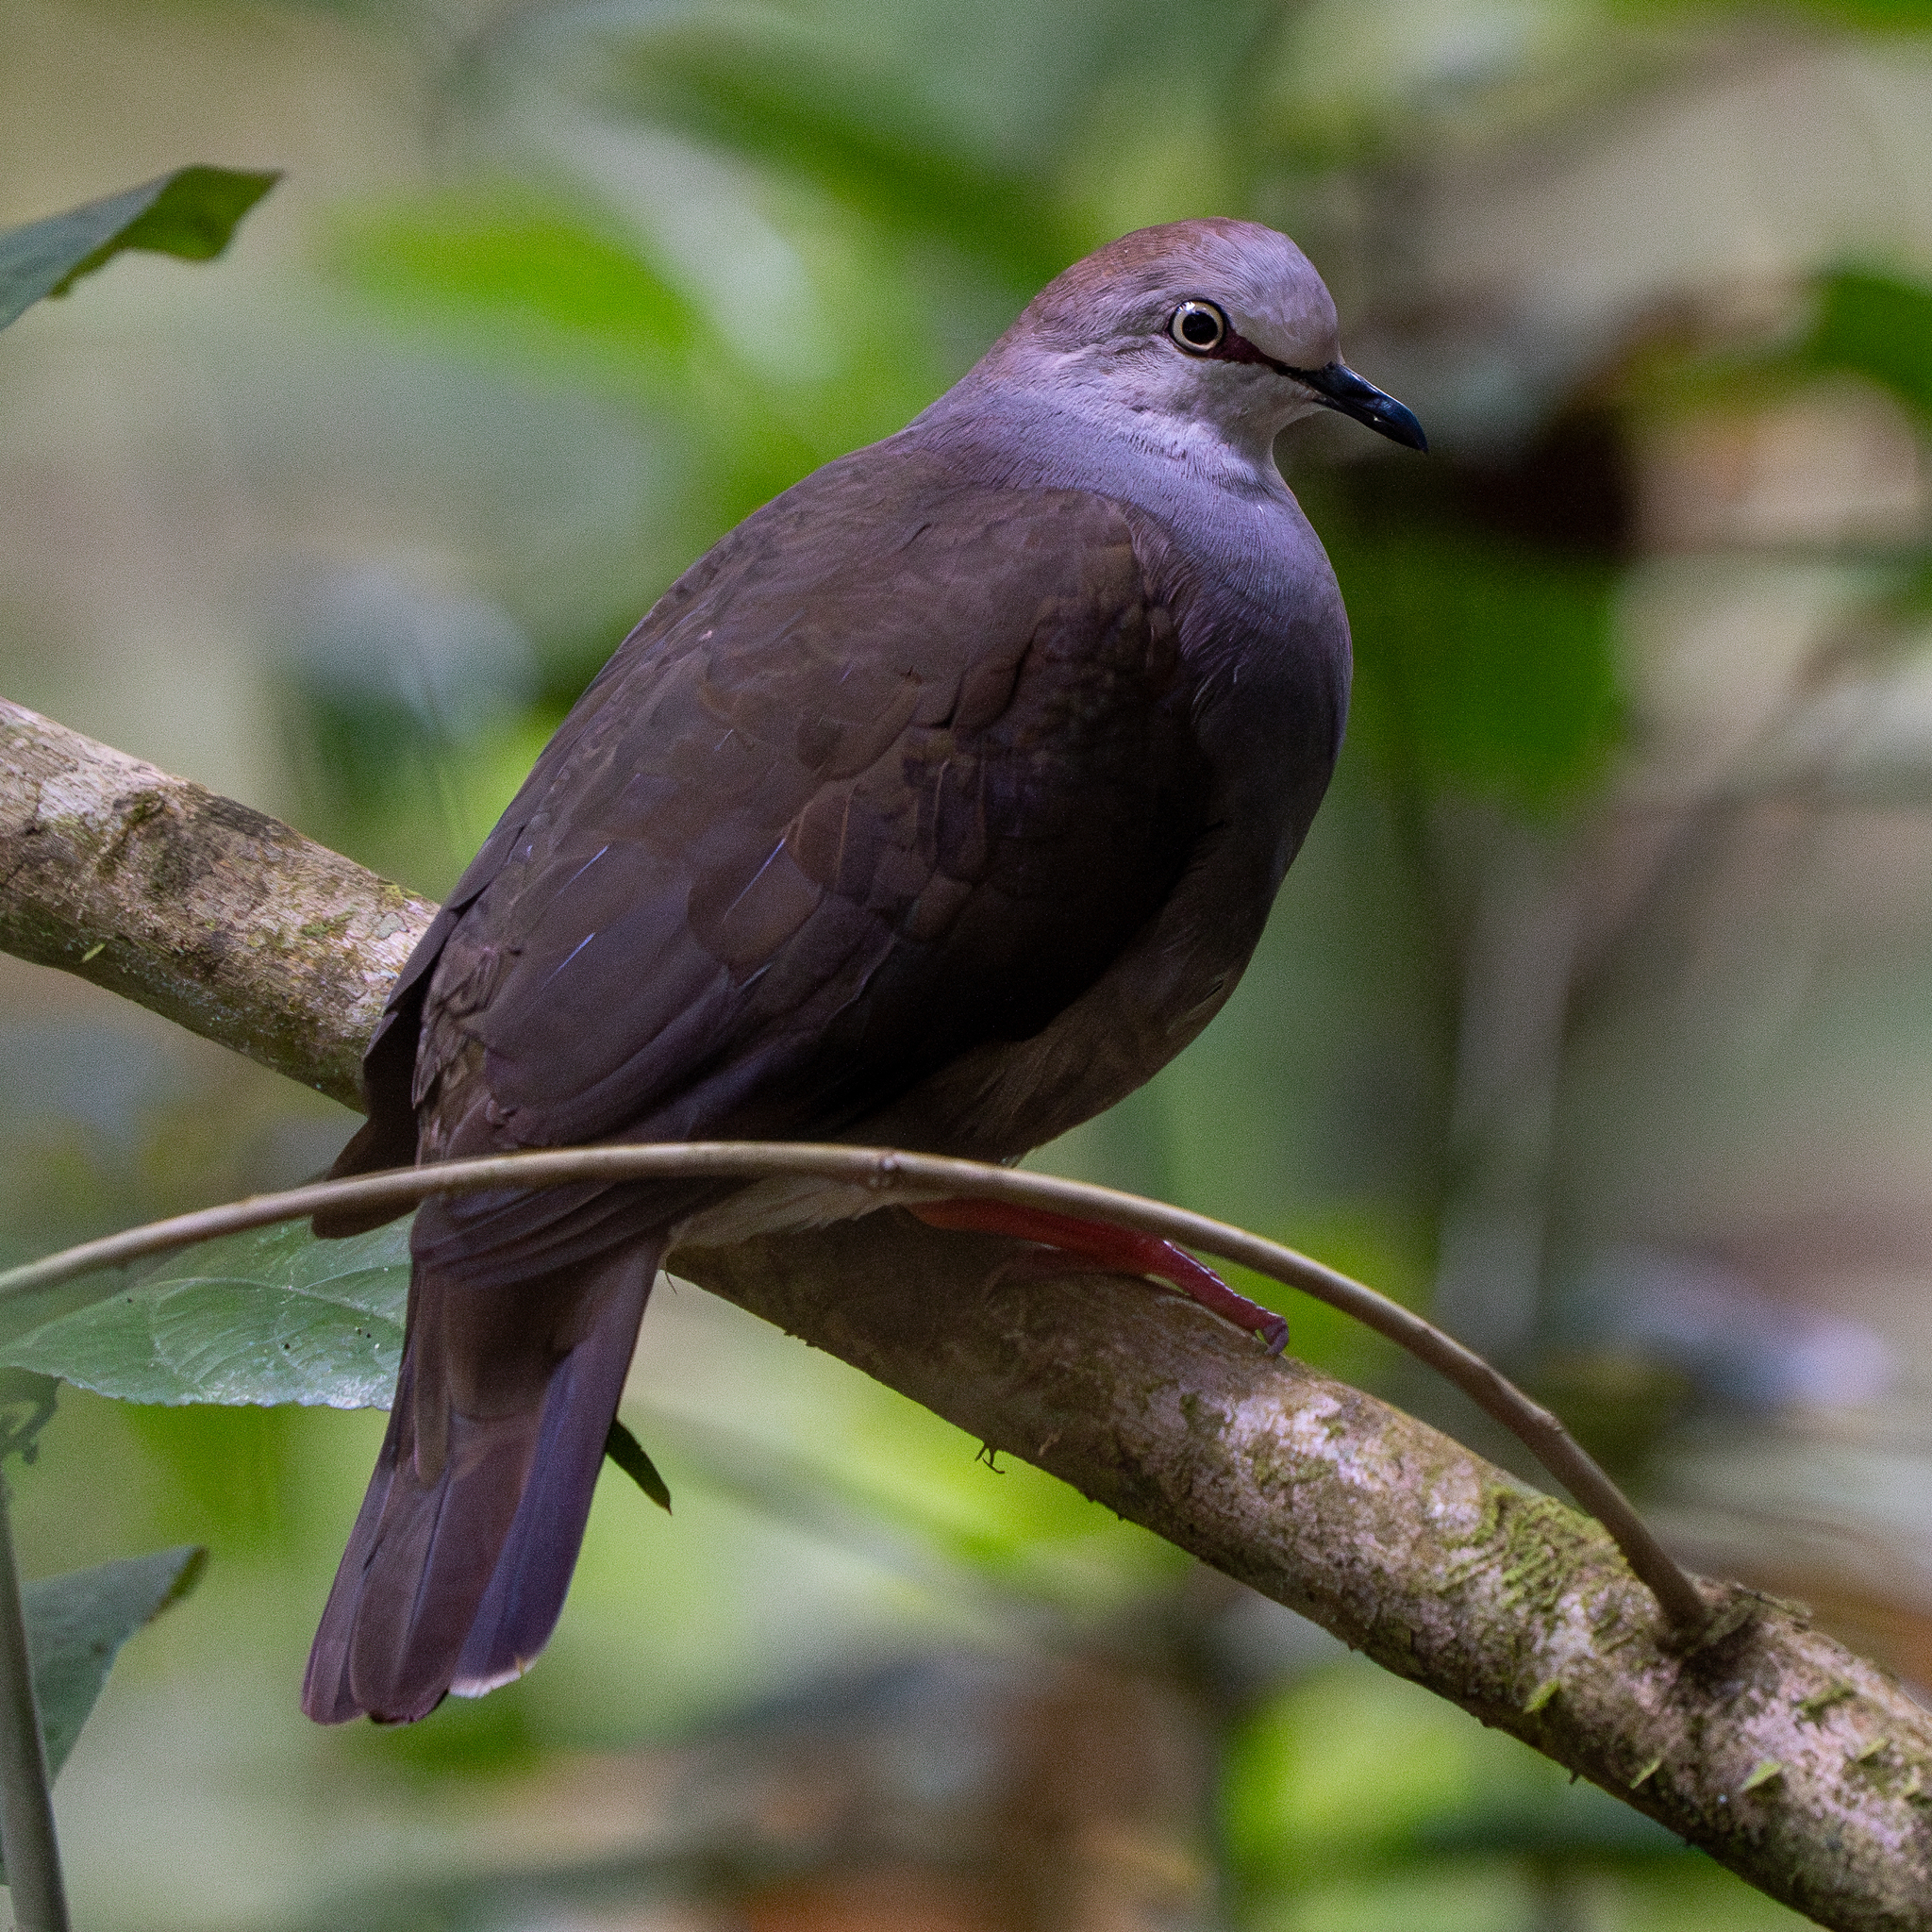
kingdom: Animalia
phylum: Chordata
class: Aves
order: Columbiformes
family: Columbidae
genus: Leptotila
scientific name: Leptotila cassinii
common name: Grey-chested dove
